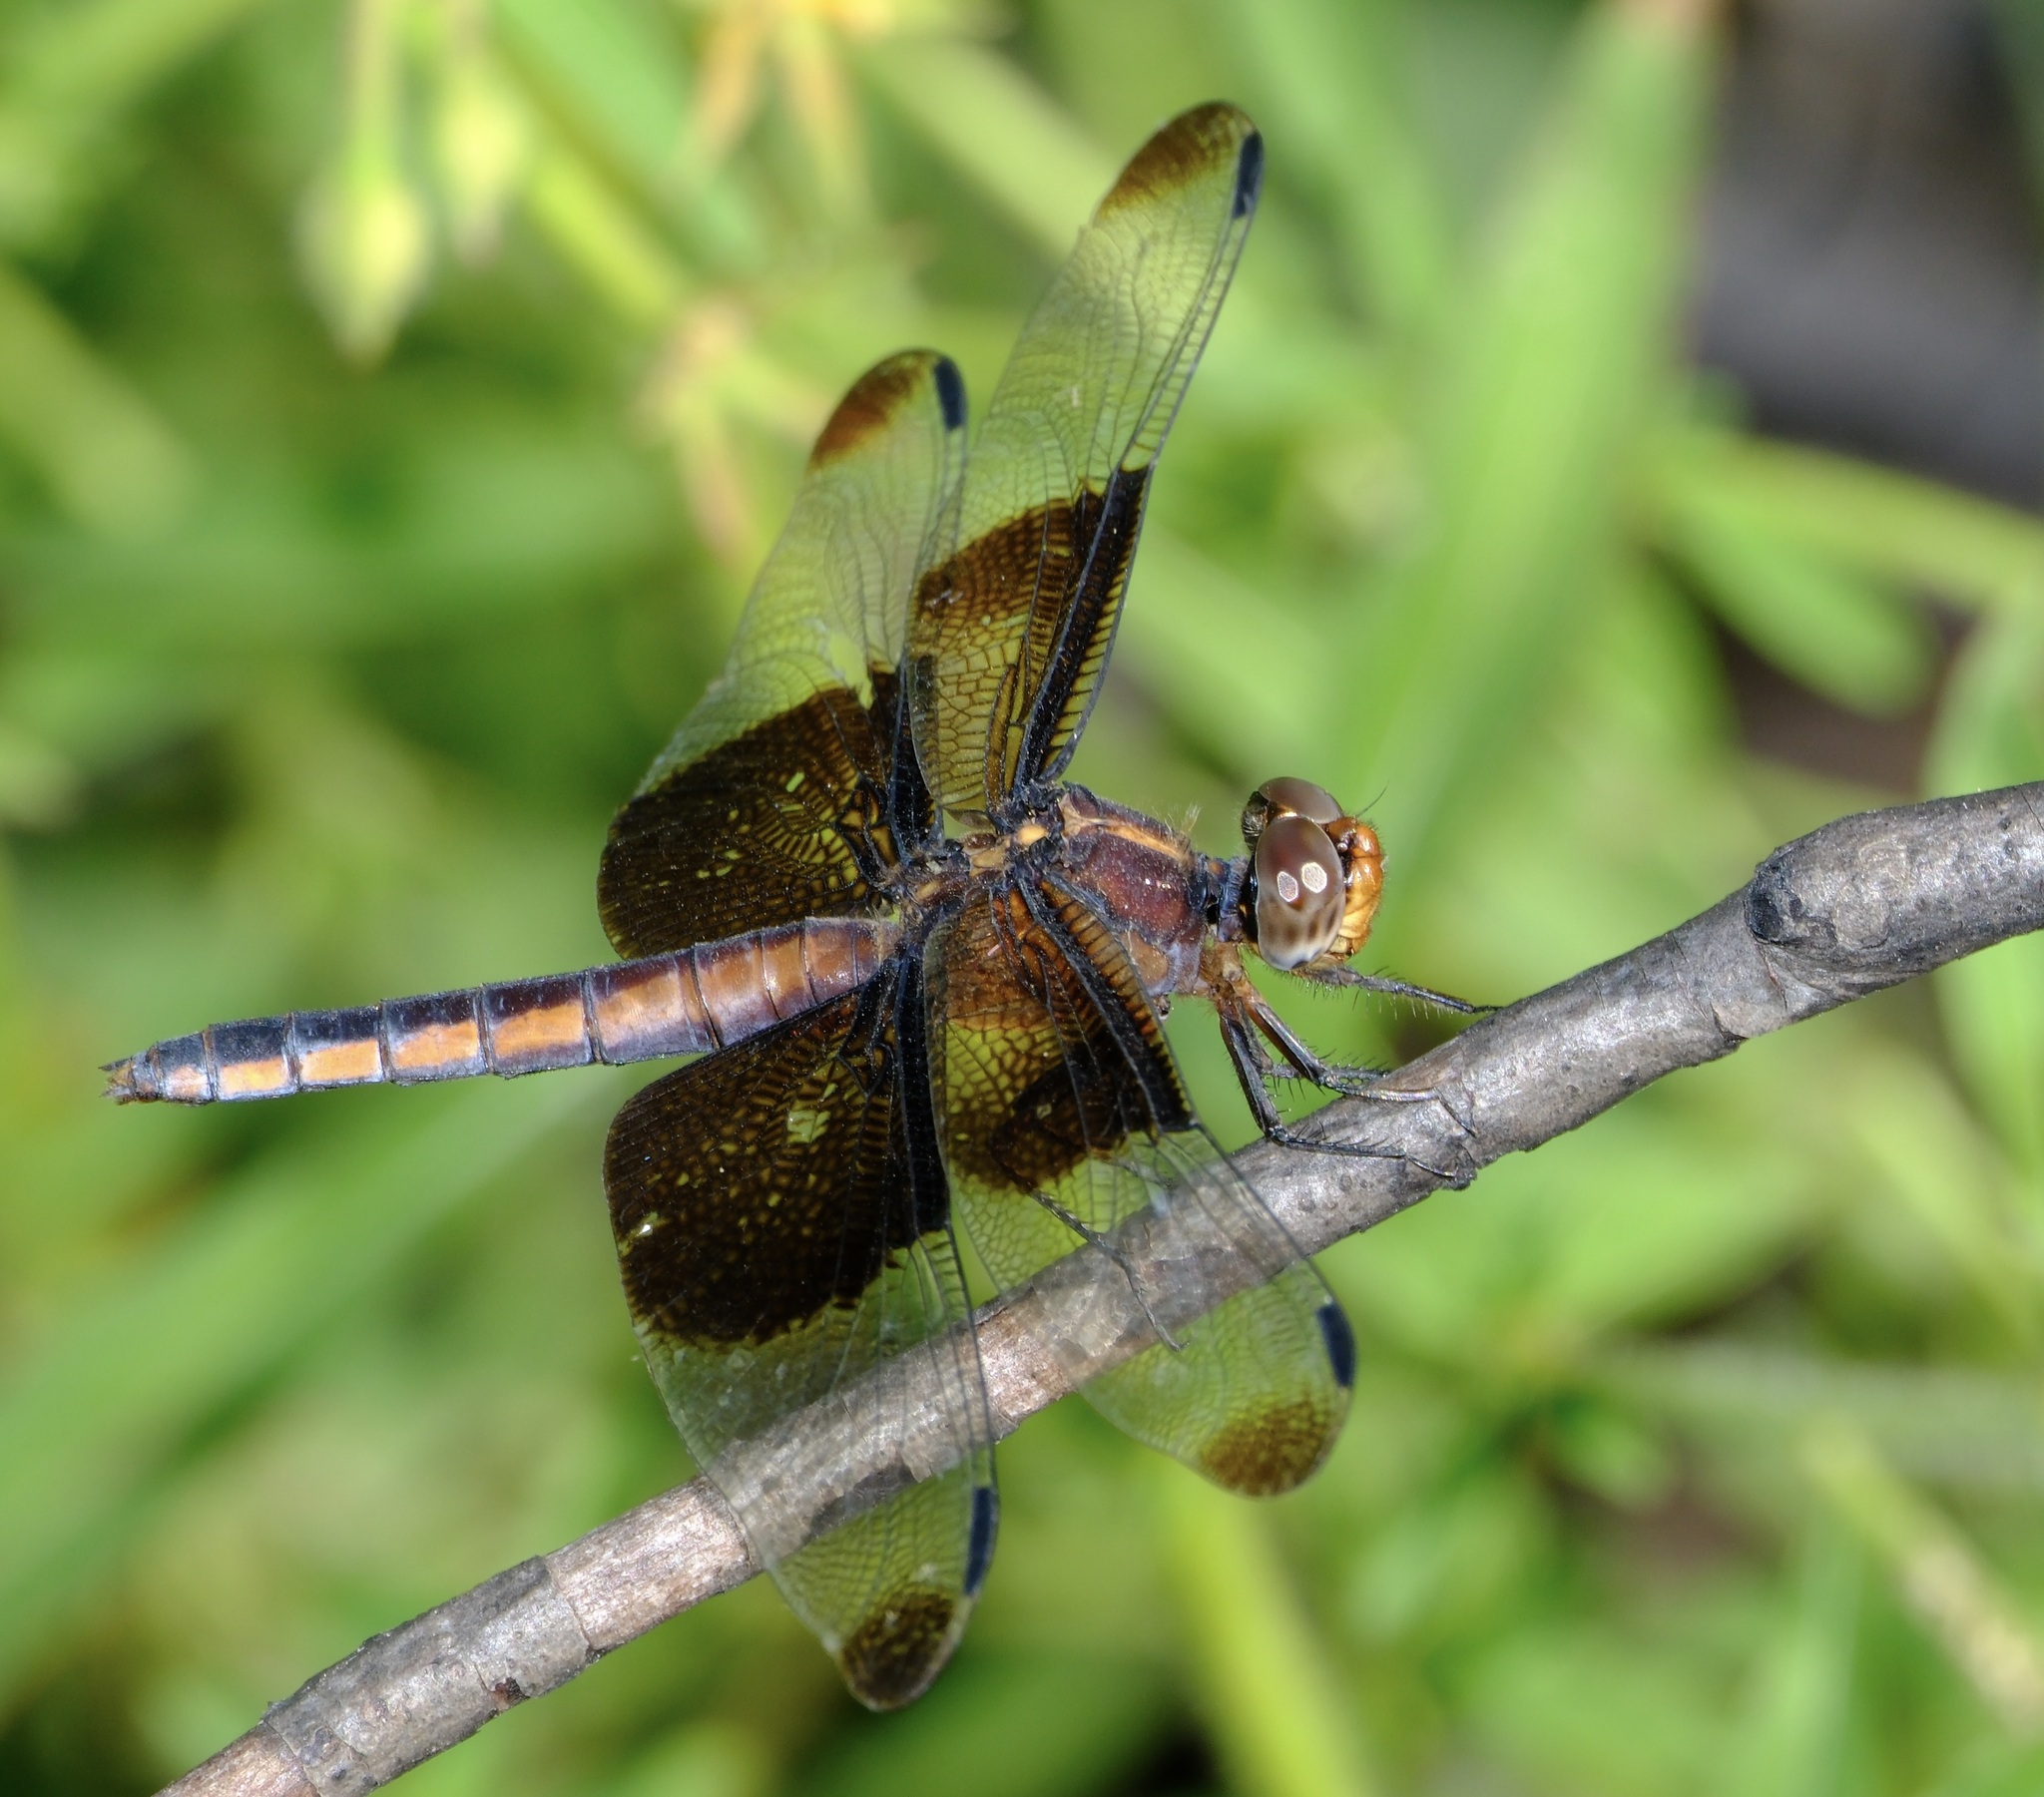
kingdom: Animalia
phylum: Arthropoda
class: Insecta
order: Odonata
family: Libellulidae
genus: Libellula
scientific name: Libellula luctuosa
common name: Widow skimmer
